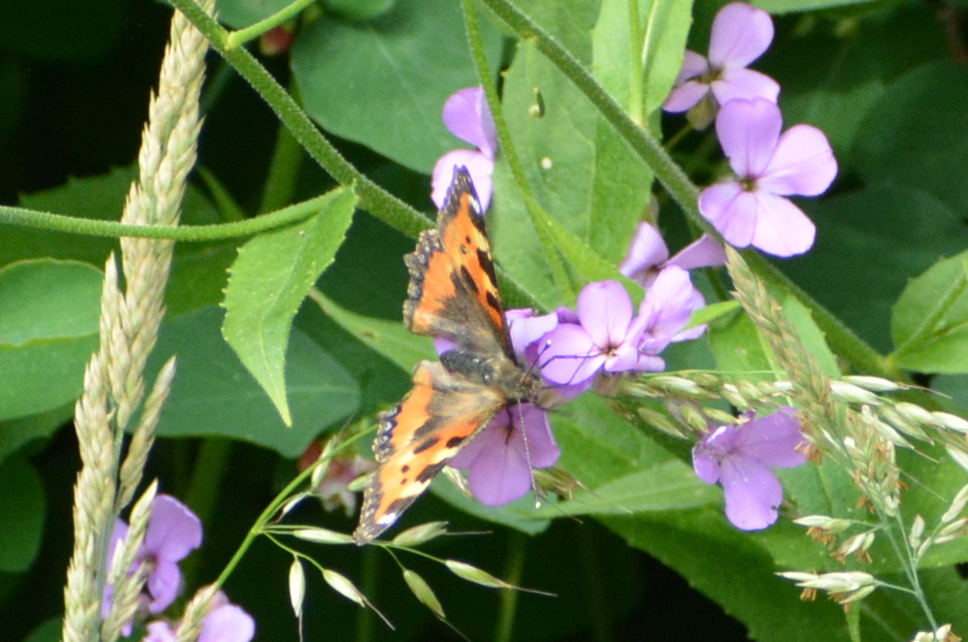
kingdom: Animalia
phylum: Arthropoda
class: Insecta
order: Lepidoptera
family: Nymphalidae
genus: Aglais
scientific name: Aglais urticae
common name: Small tortoiseshell
